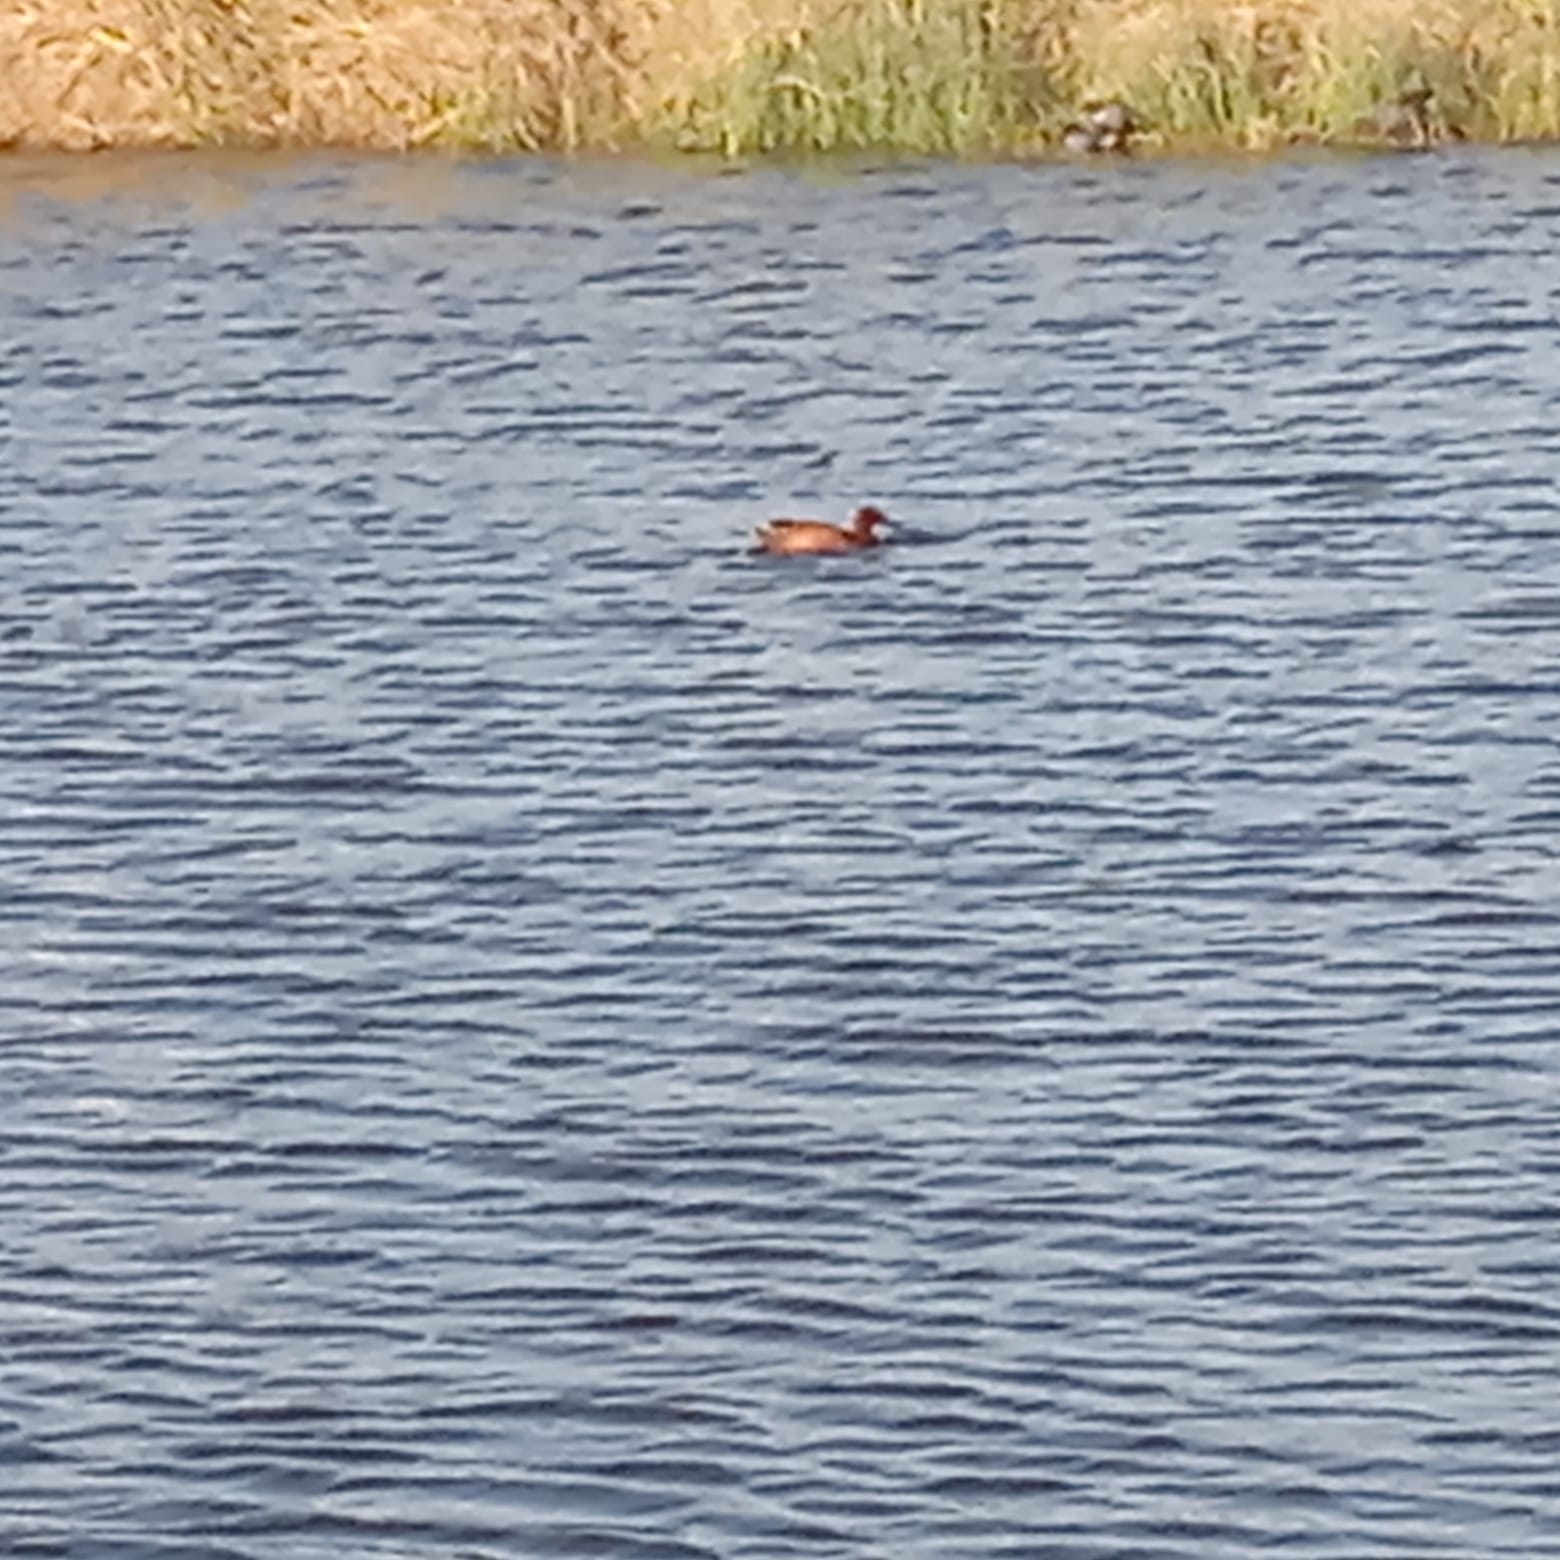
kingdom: Animalia
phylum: Chordata
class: Aves
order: Anseriformes
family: Anatidae
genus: Spatula
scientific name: Spatula cyanoptera
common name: Cinnamon teal
